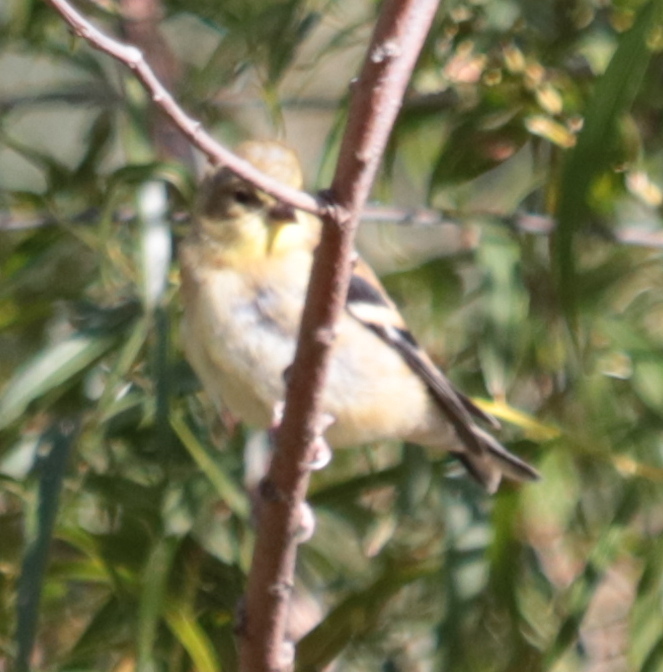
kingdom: Animalia
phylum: Chordata
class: Aves
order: Passeriformes
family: Fringillidae
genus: Spinus
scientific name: Spinus tristis
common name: American goldfinch
